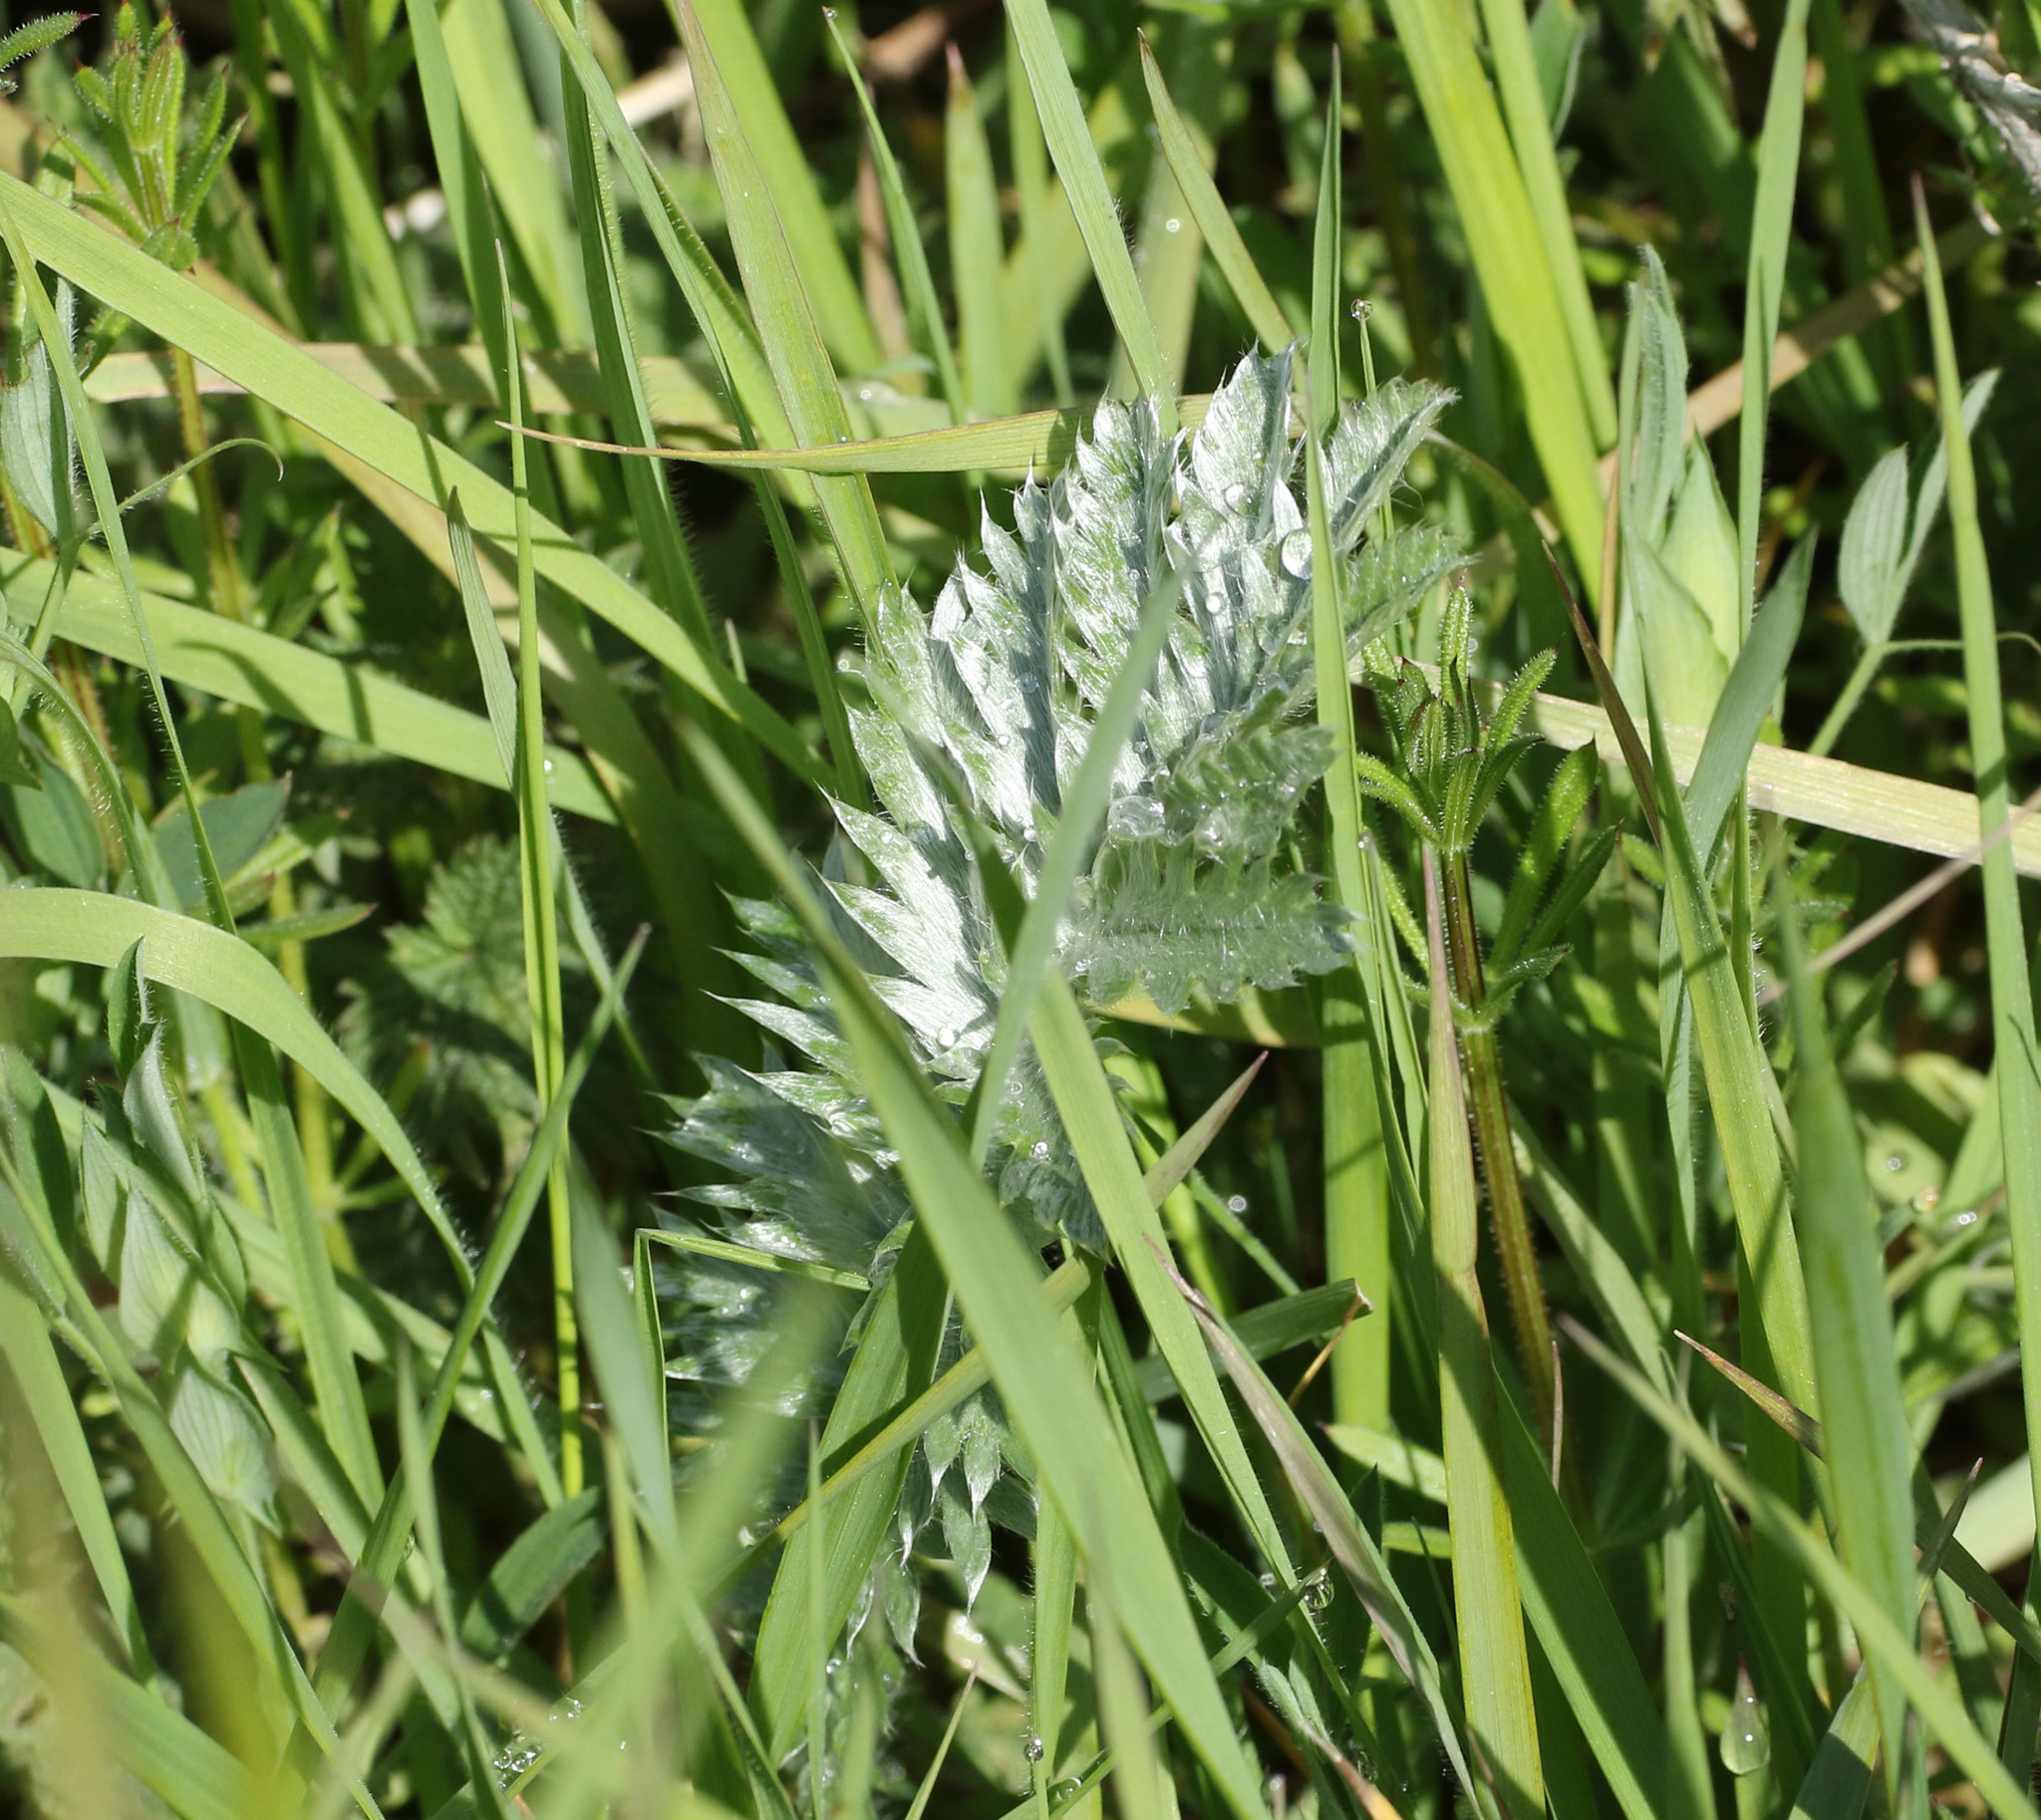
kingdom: Plantae
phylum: Tracheophyta
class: Magnoliopsida
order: Rosales
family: Rosaceae
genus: Argentina
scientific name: Argentina anserina
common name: Common silverweed
